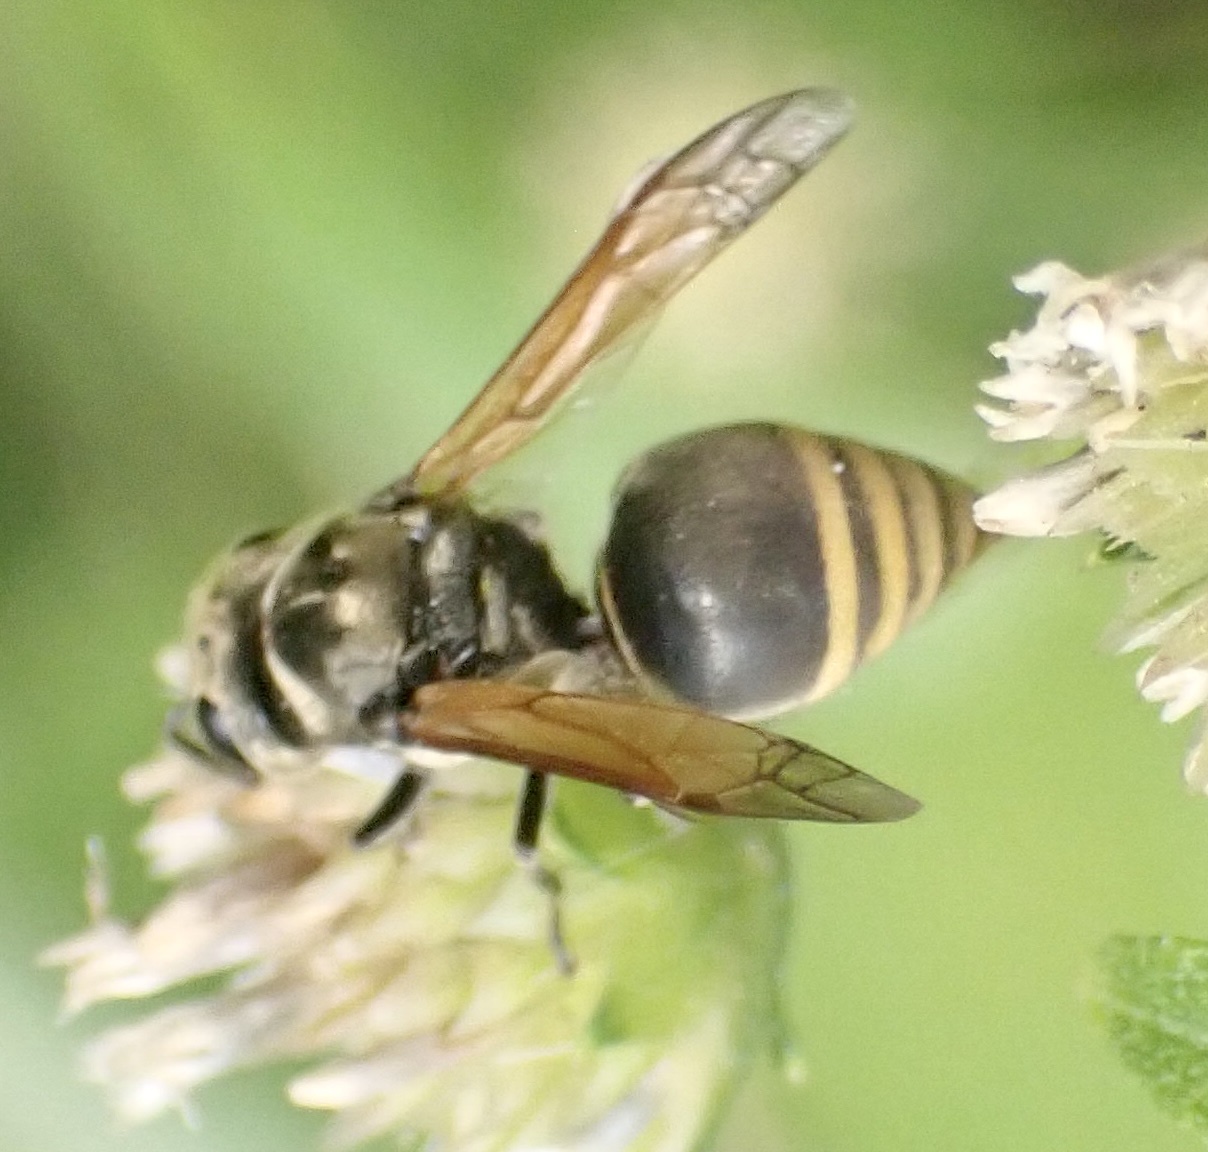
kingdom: Animalia
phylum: Arthropoda
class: Insecta
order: Hymenoptera
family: Vespidae
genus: Brachygastra
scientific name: Brachygastra mellifica
